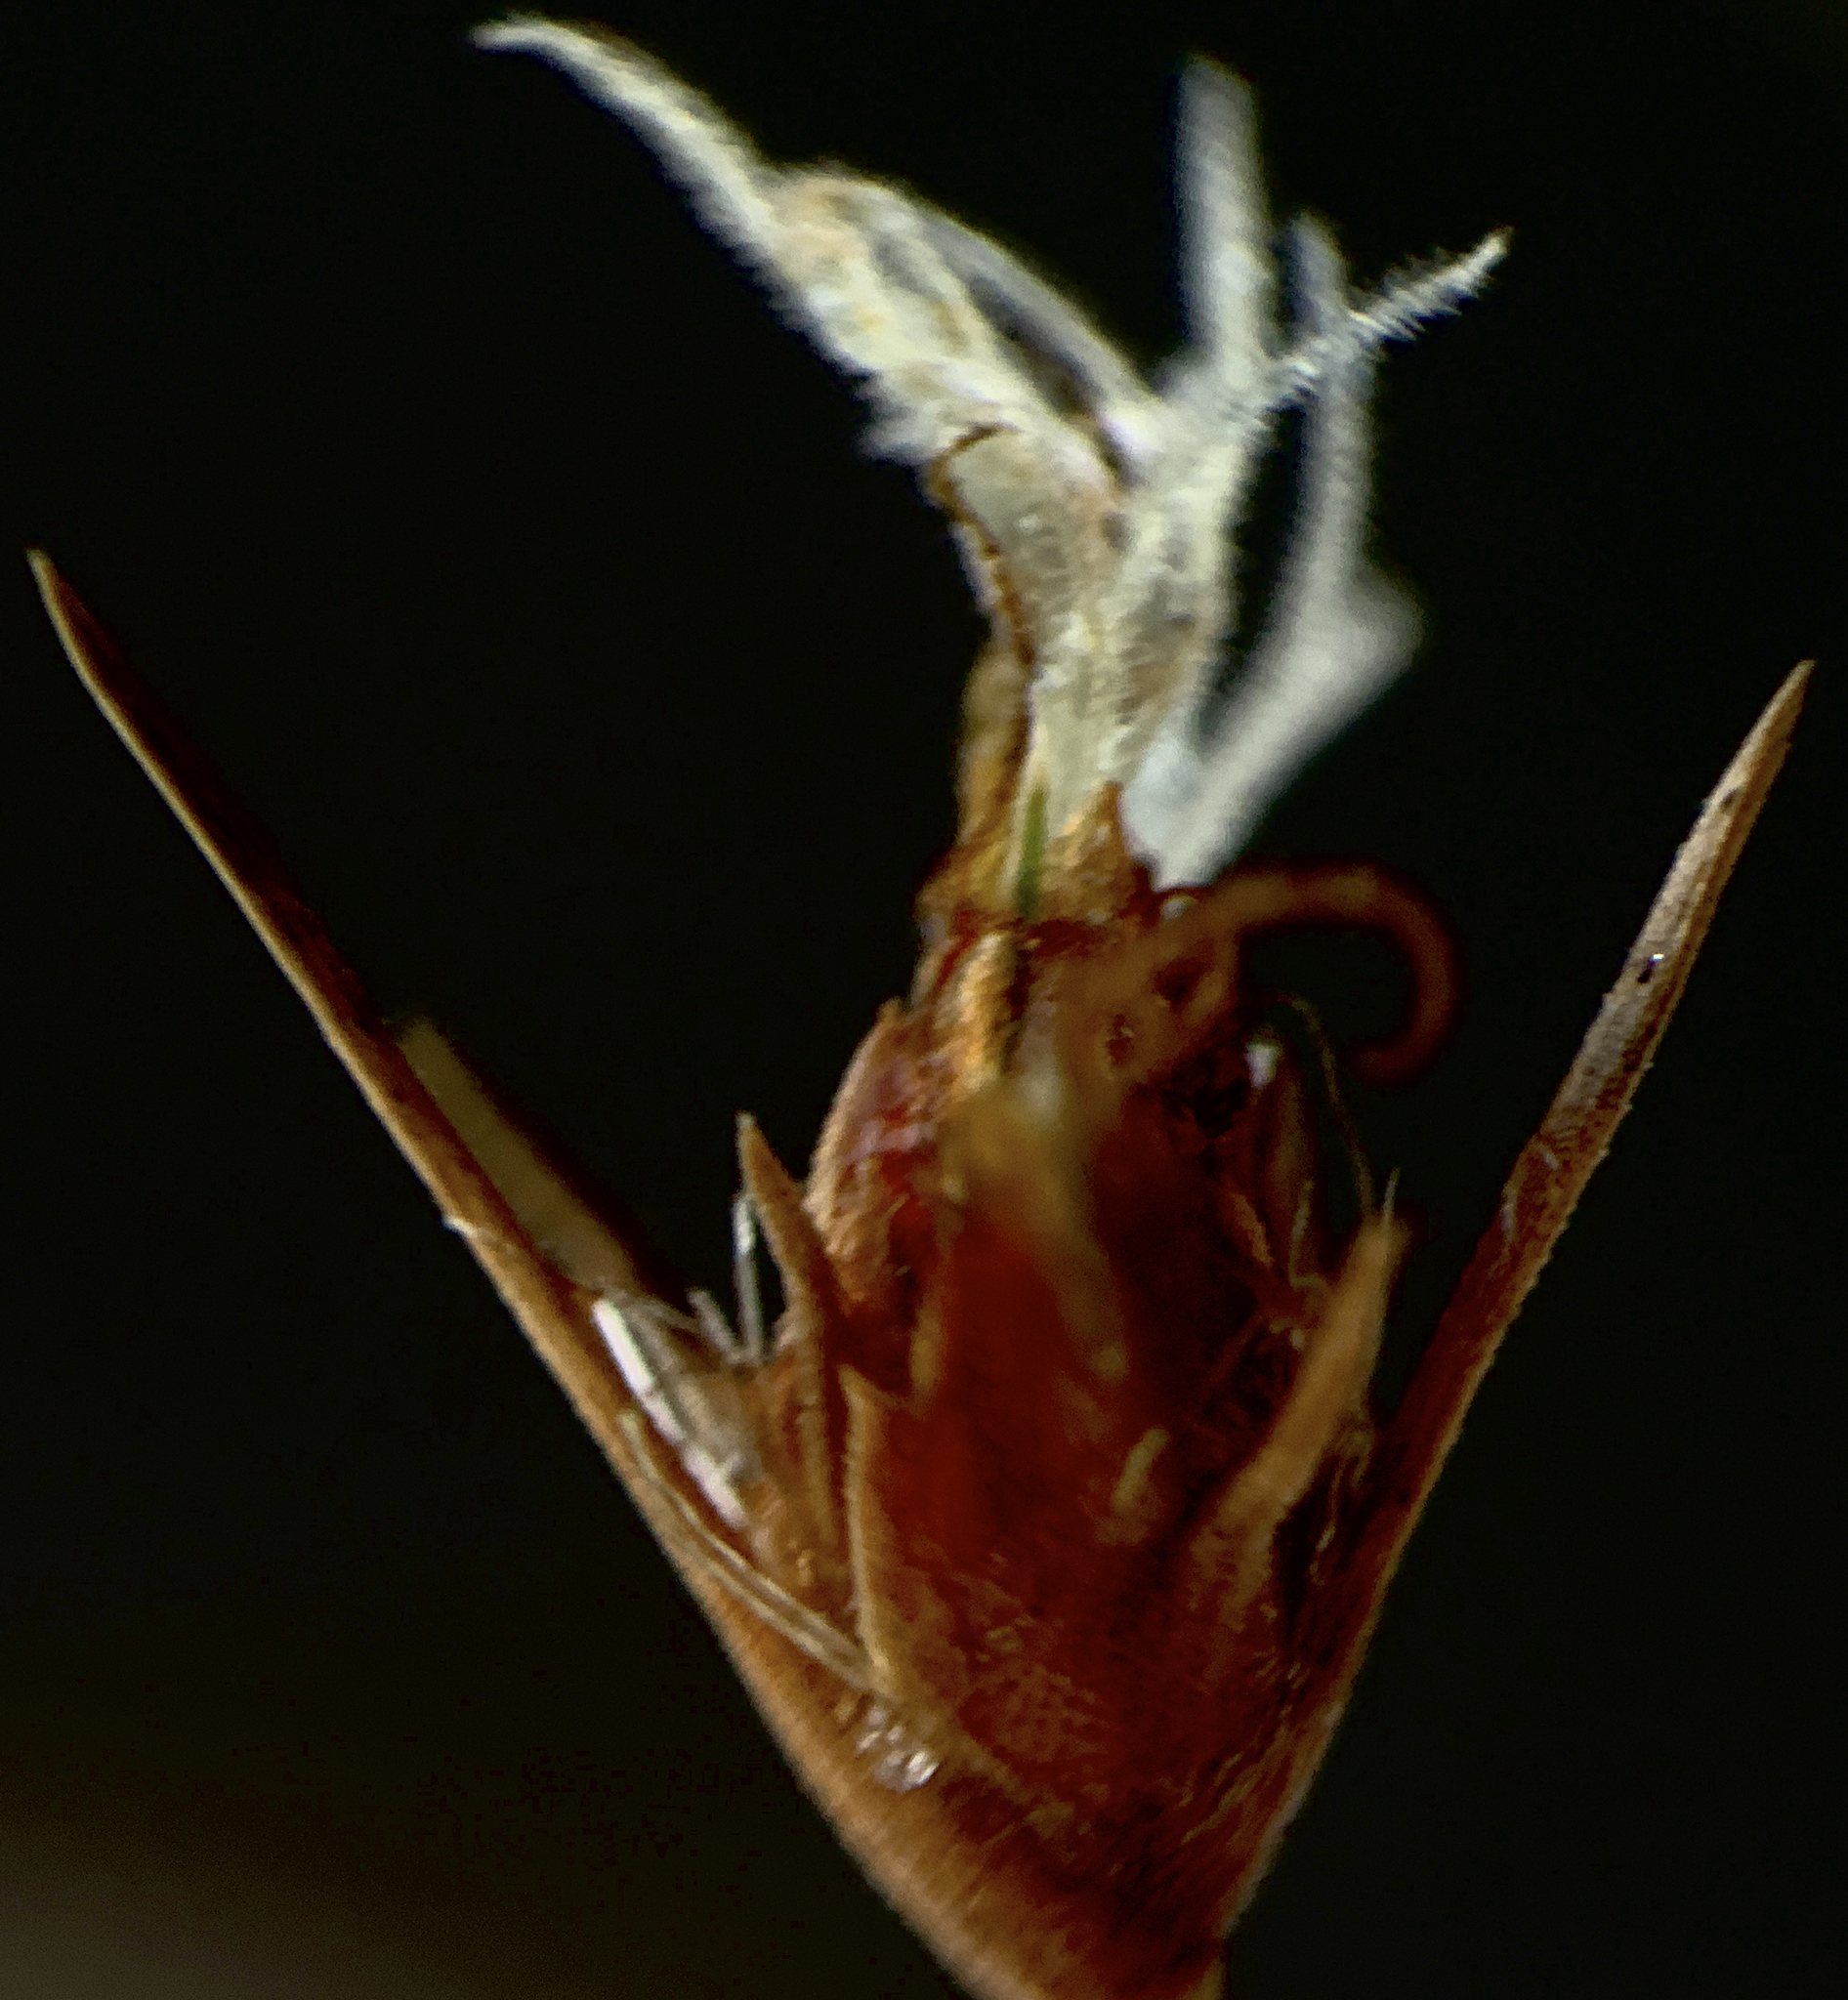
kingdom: Plantae
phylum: Tracheophyta
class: Liliopsida
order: Poales
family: Cyperaceae
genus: Bulbostylis
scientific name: Bulbostylis warei
